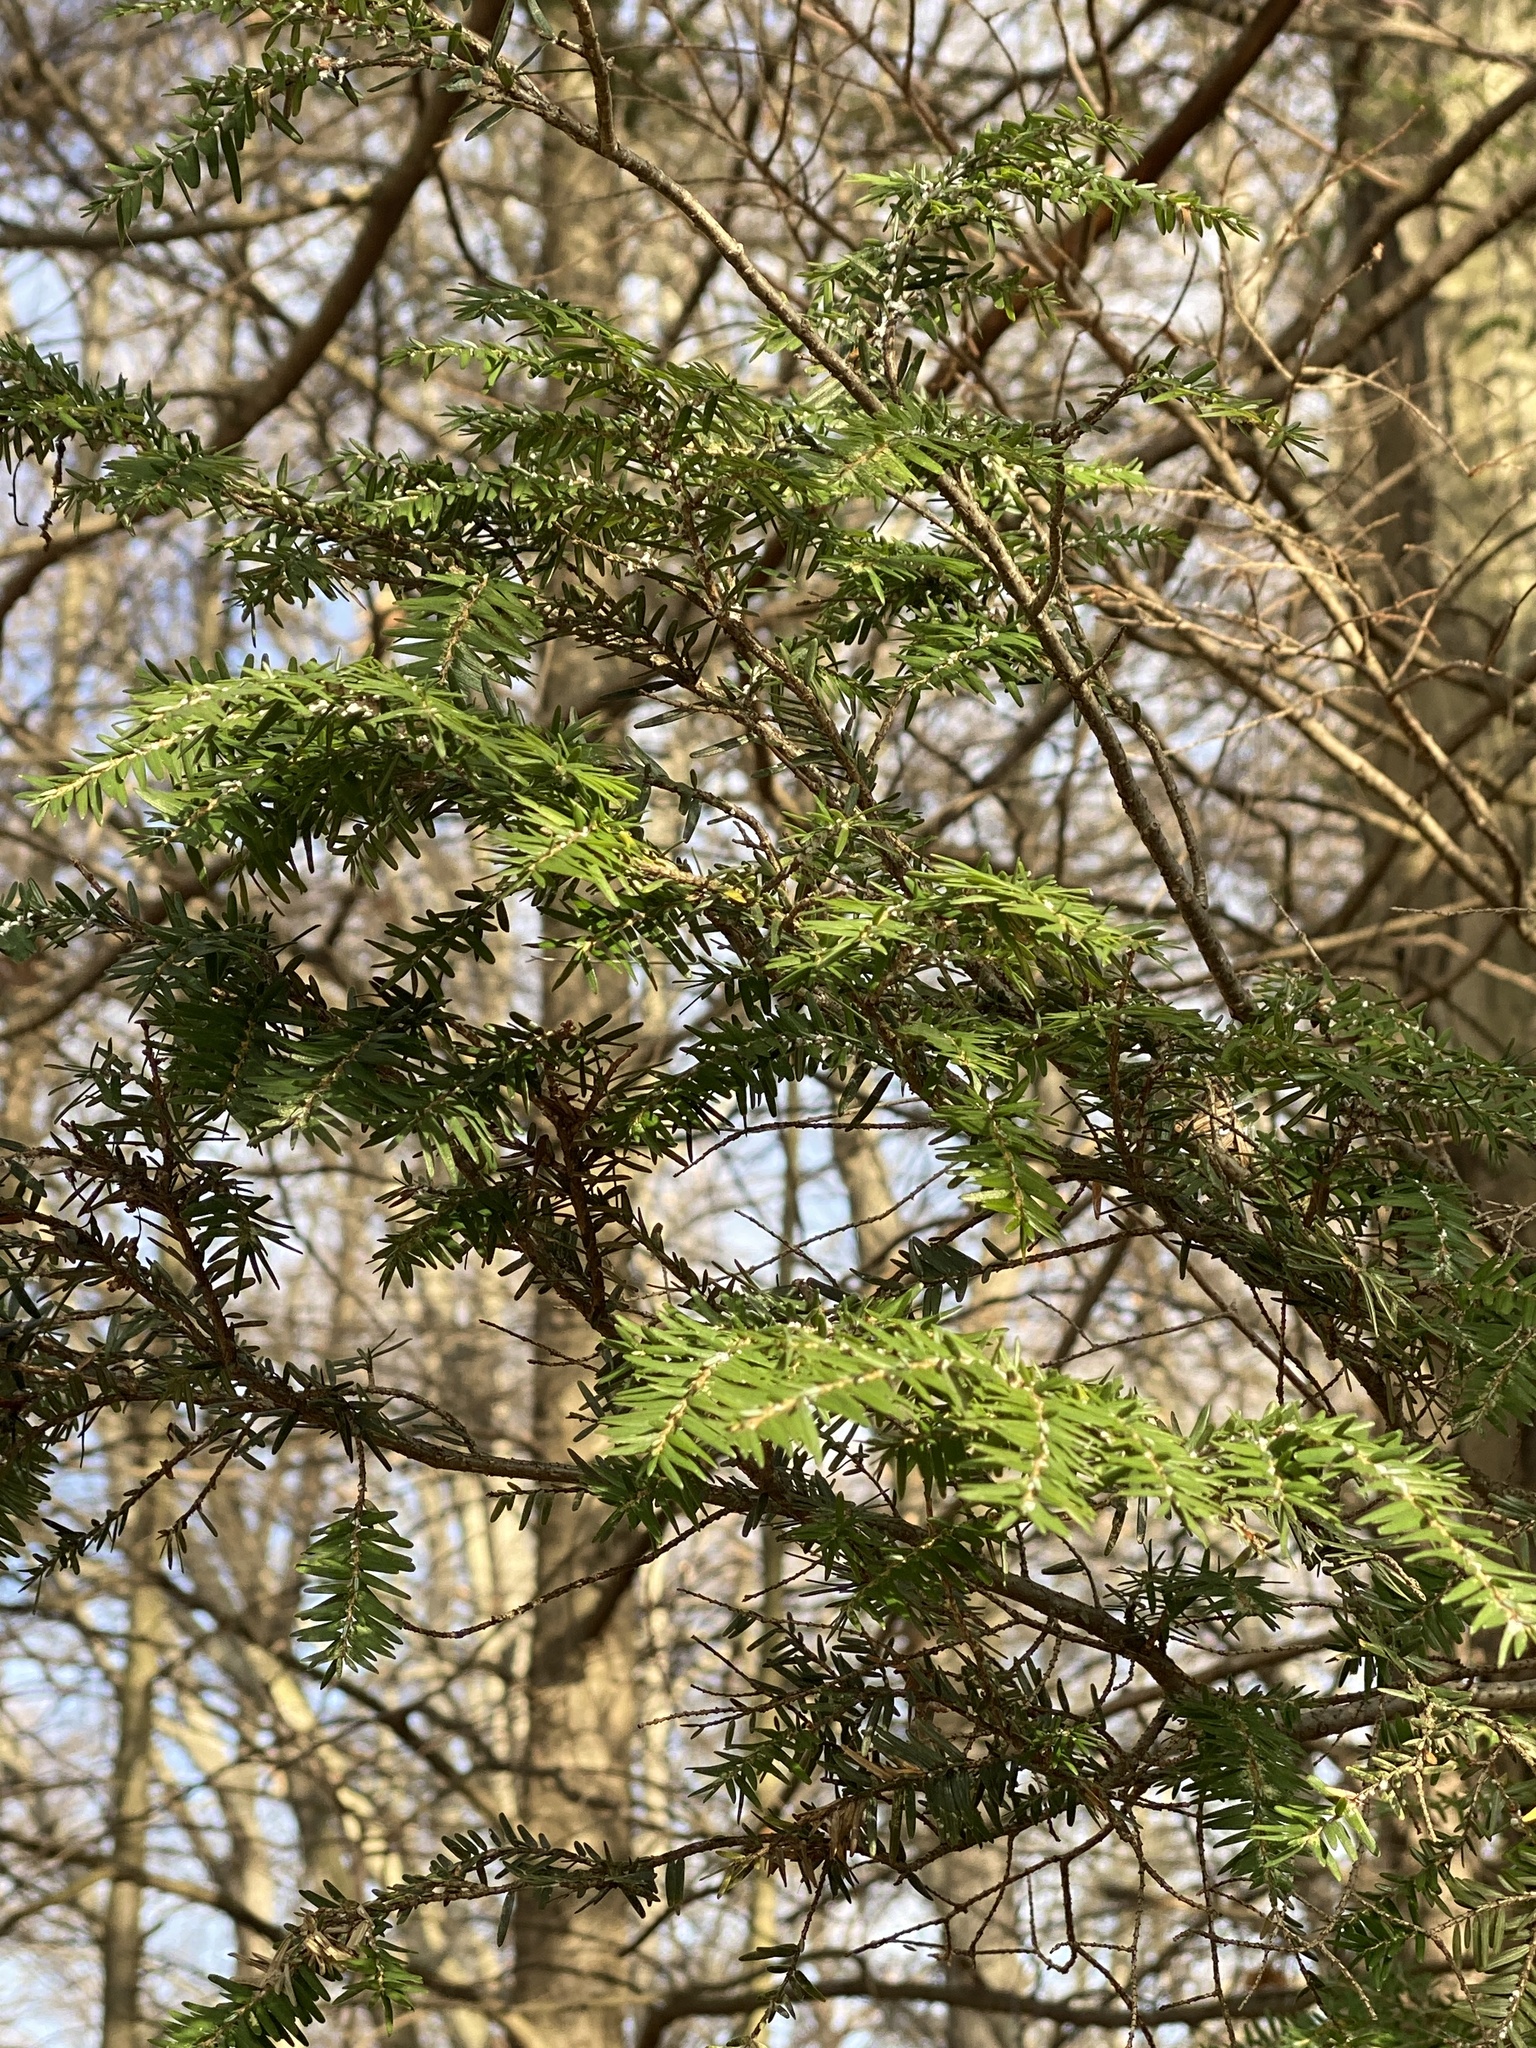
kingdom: Plantae
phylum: Tracheophyta
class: Pinopsida
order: Pinales
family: Pinaceae
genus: Tsuga
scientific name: Tsuga canadensis
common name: Eastern hemlock
